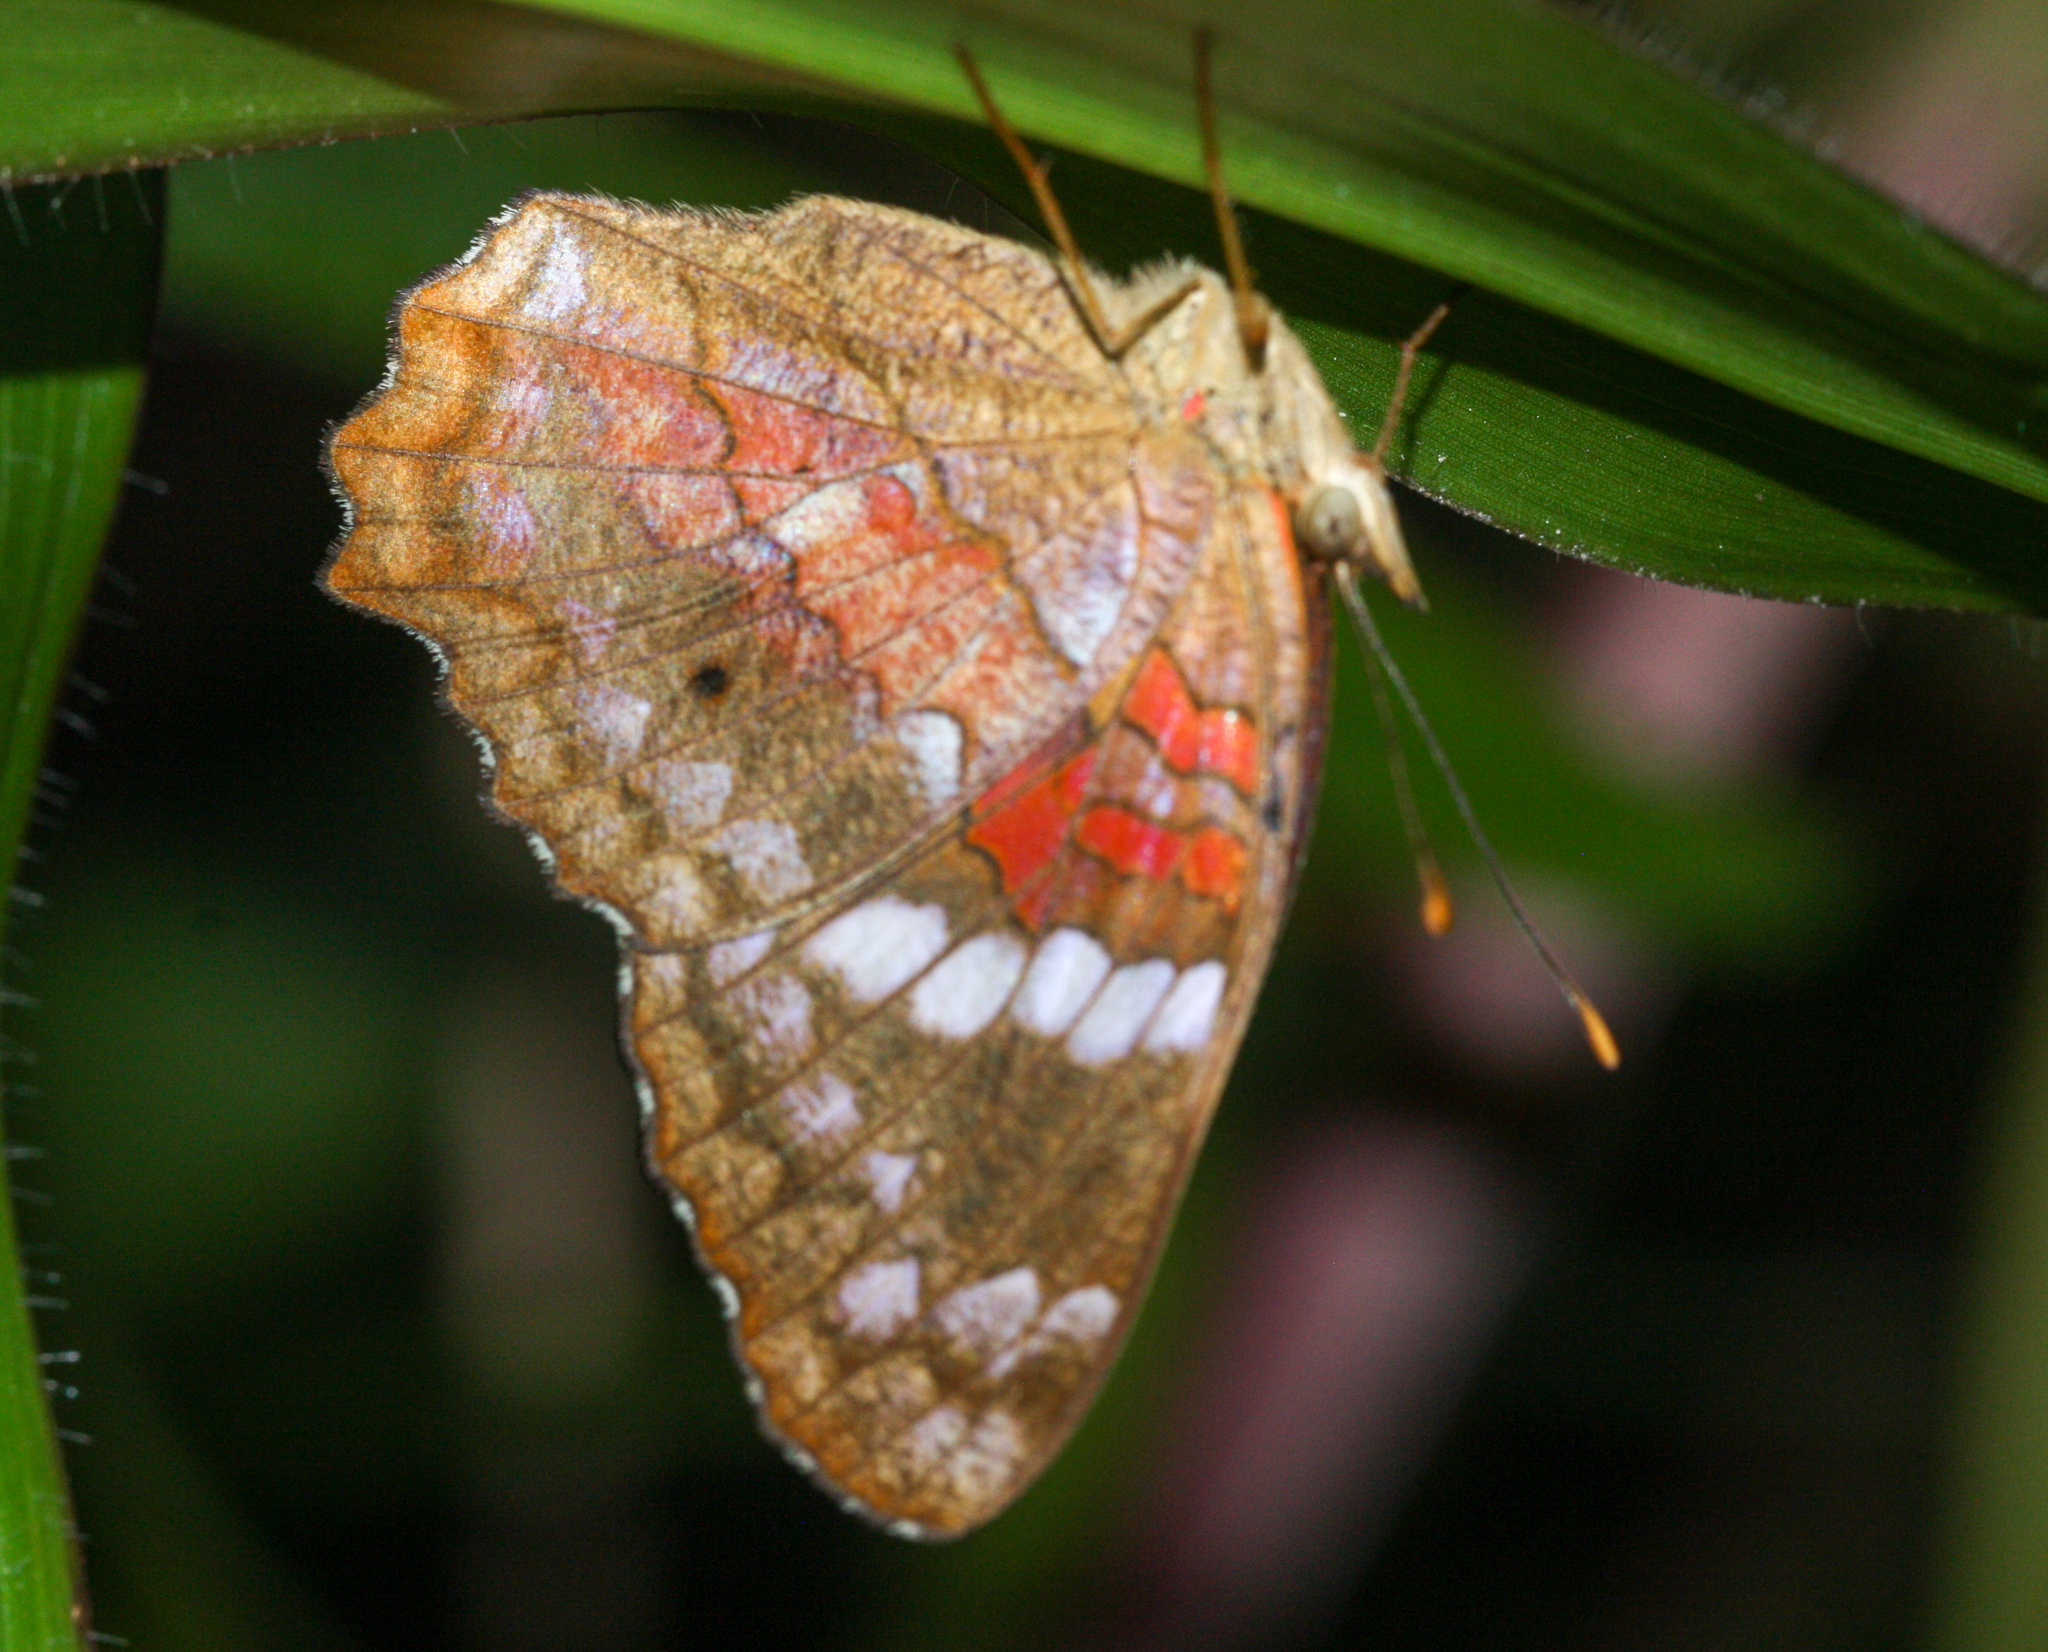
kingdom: Animalia
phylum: Arthropoda
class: Insecta
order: Lepidoptera
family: Nymphalidae
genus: Anartia
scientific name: Anartia amathea
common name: Red peacock
